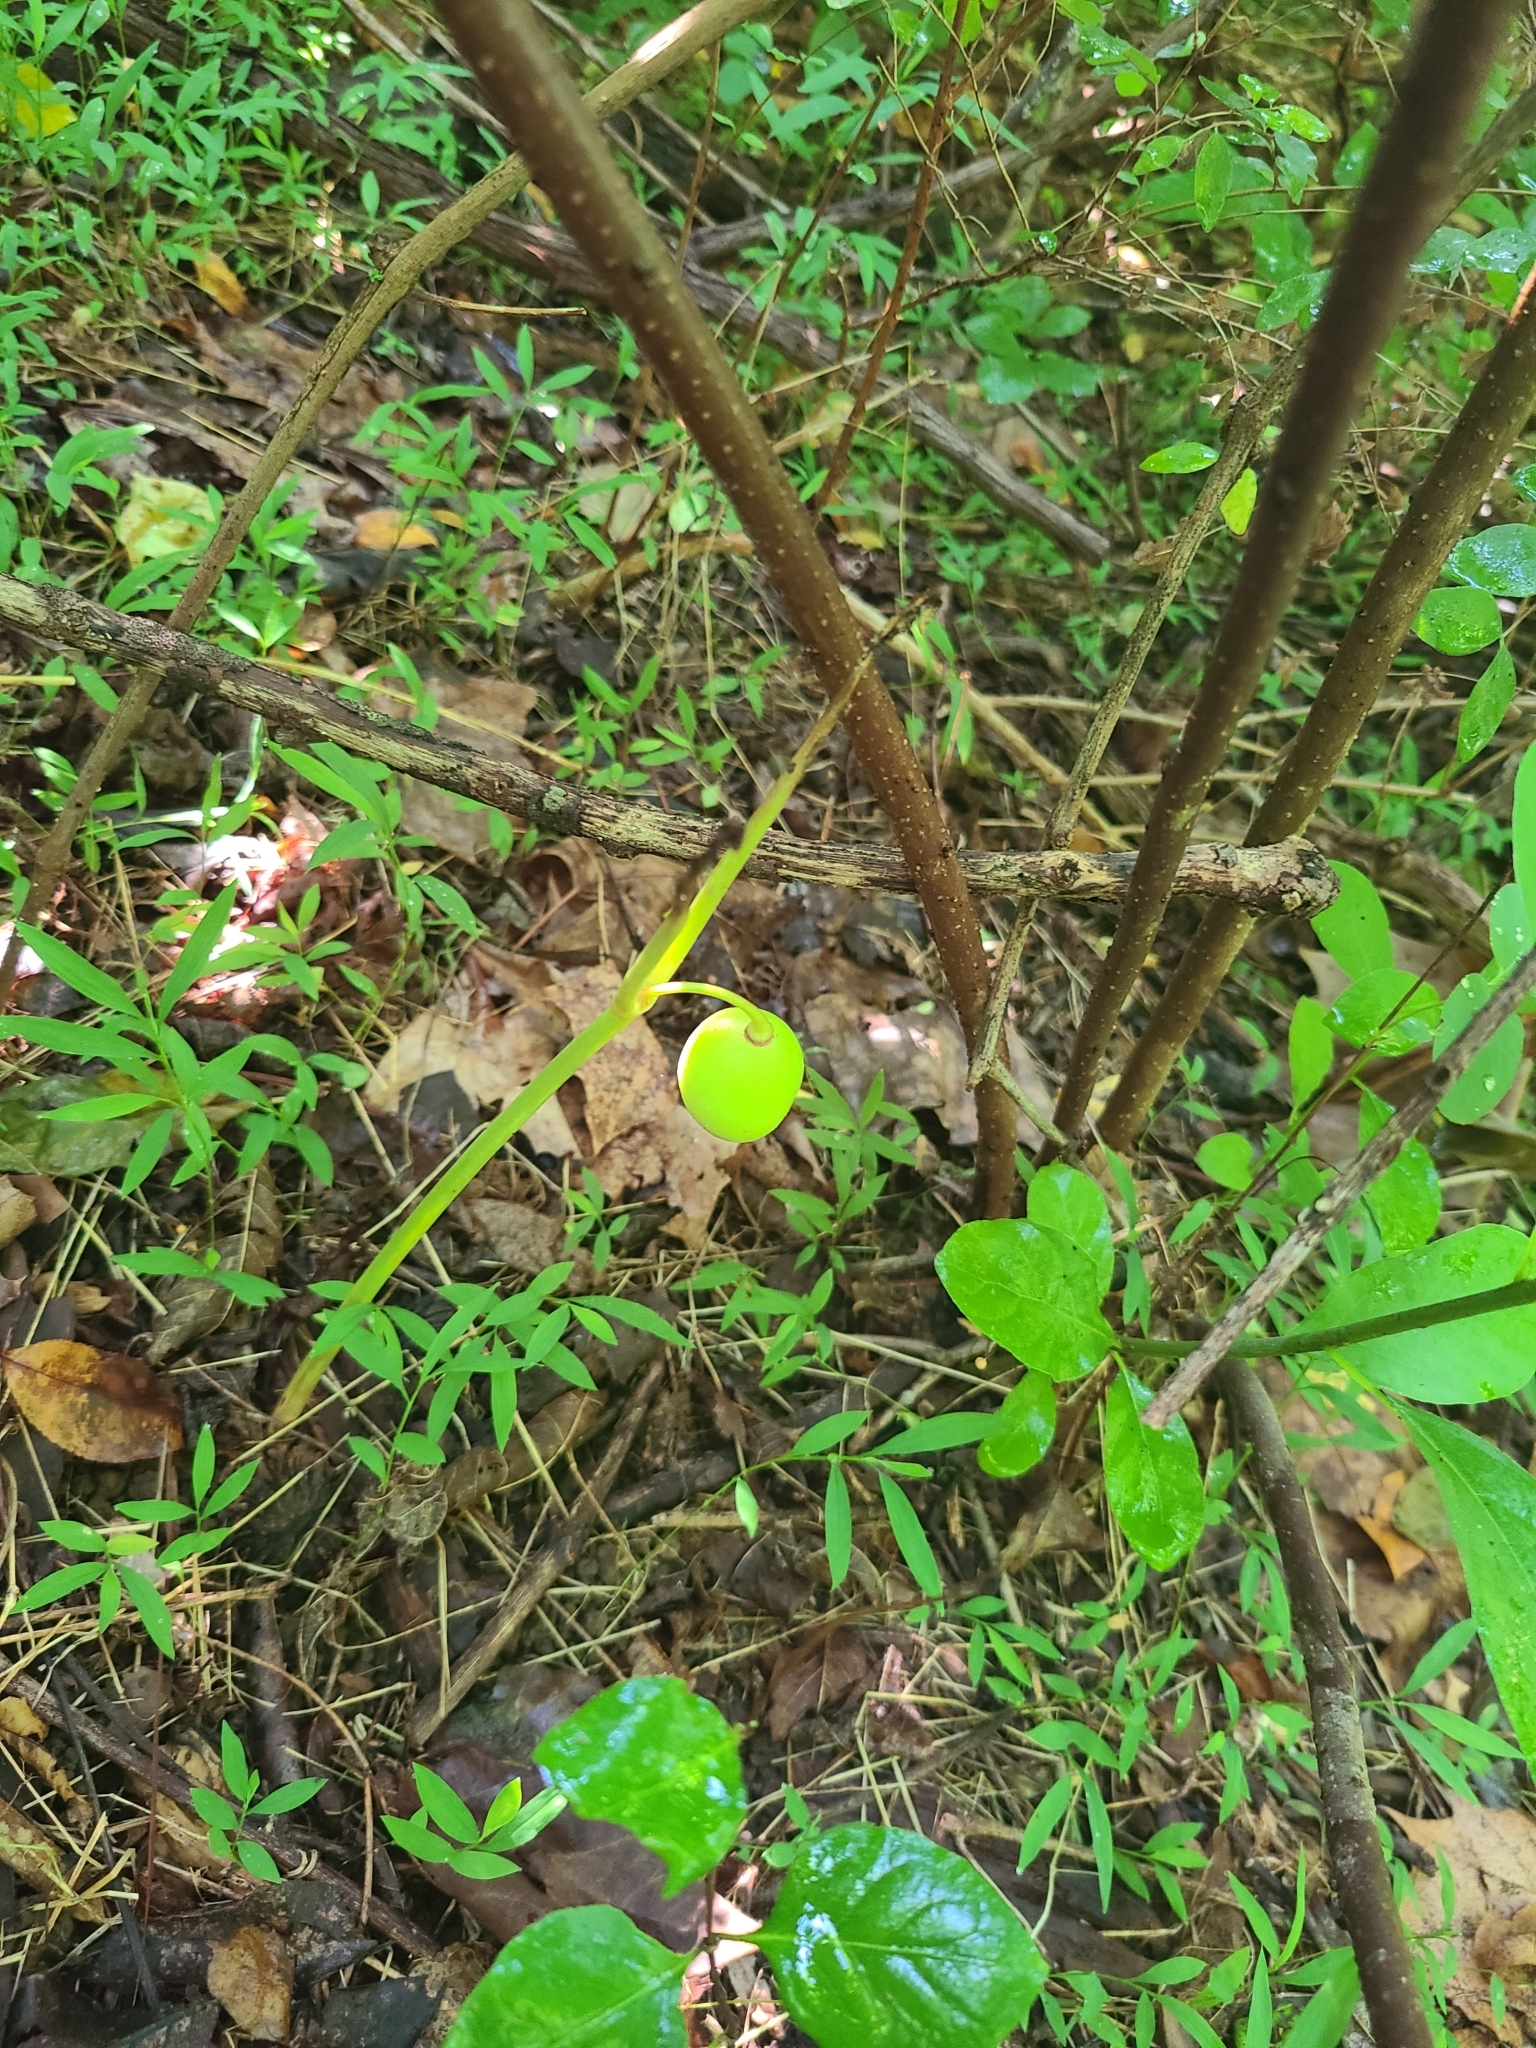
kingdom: Plantae
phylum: Tracheophyta
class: Magnoliopsida
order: Ericales
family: Ebenaceae
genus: Diospyros
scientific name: Diospyros virginiana
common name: Persimmon
